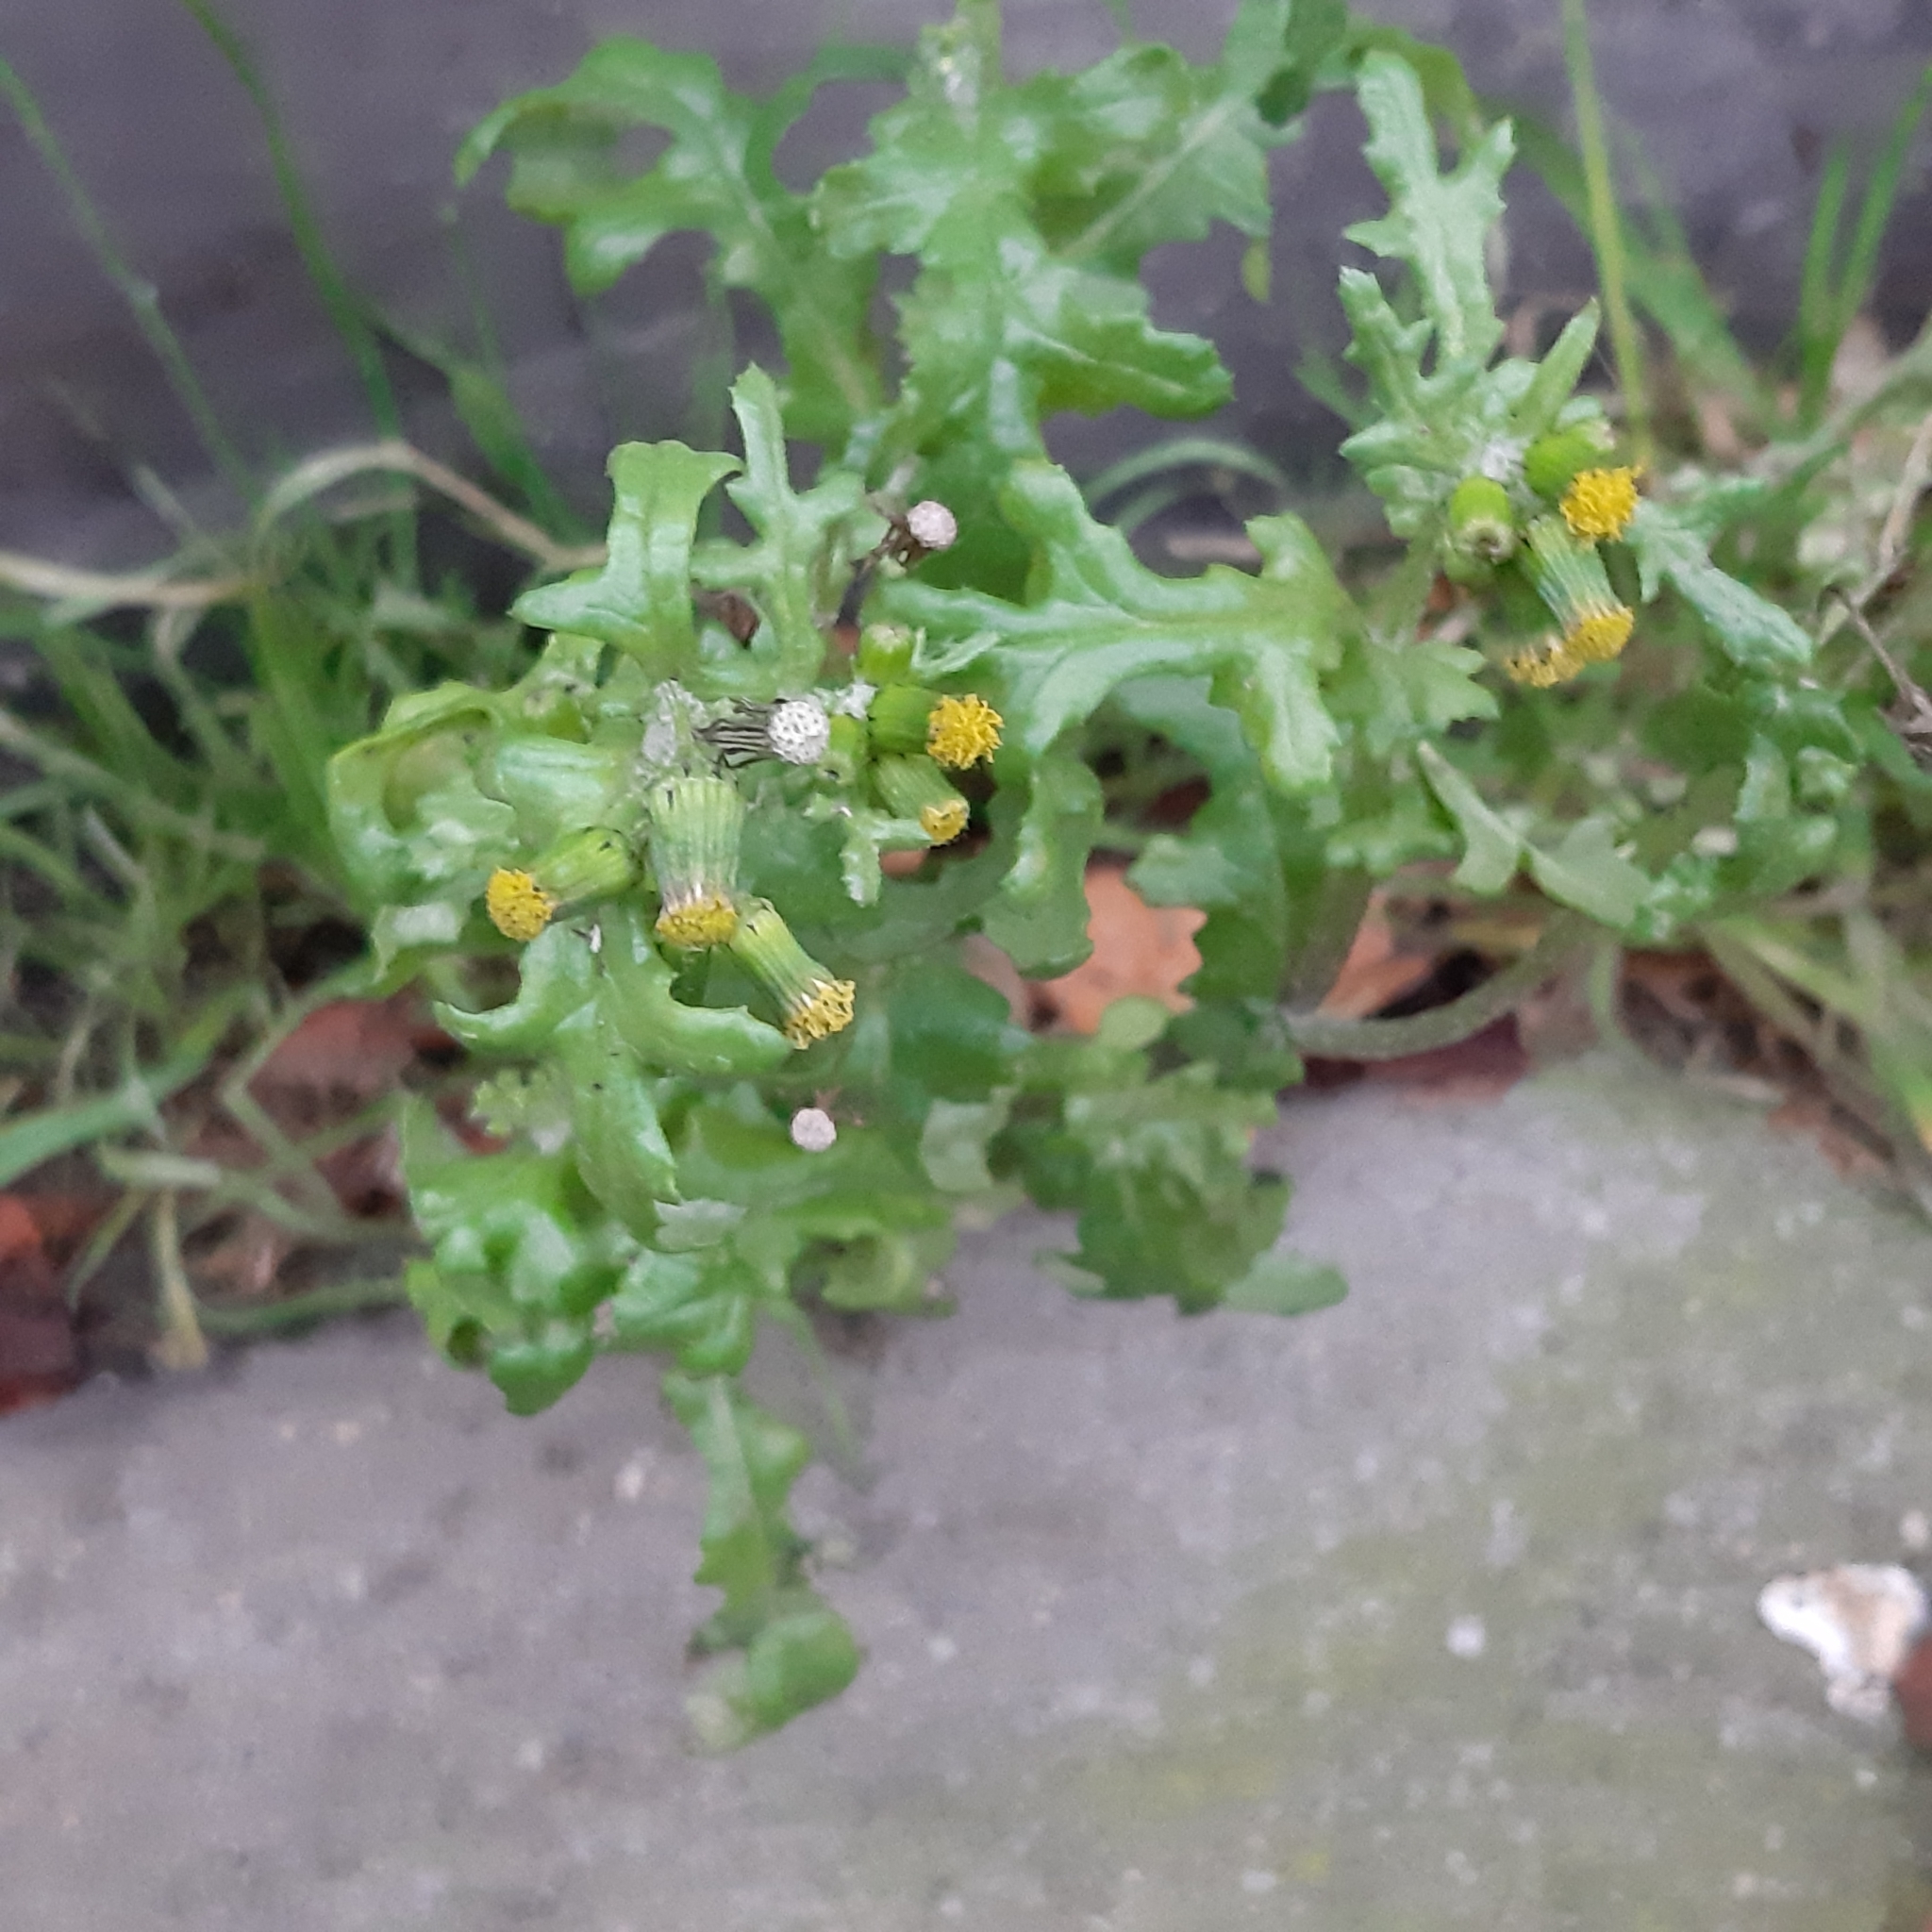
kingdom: Plantae
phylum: Tracheophyta
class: Magnoliopsida
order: Asterales
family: Asteraceae
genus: Senecio
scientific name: Senecio vulgaris
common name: Old-man-in-the-spring
